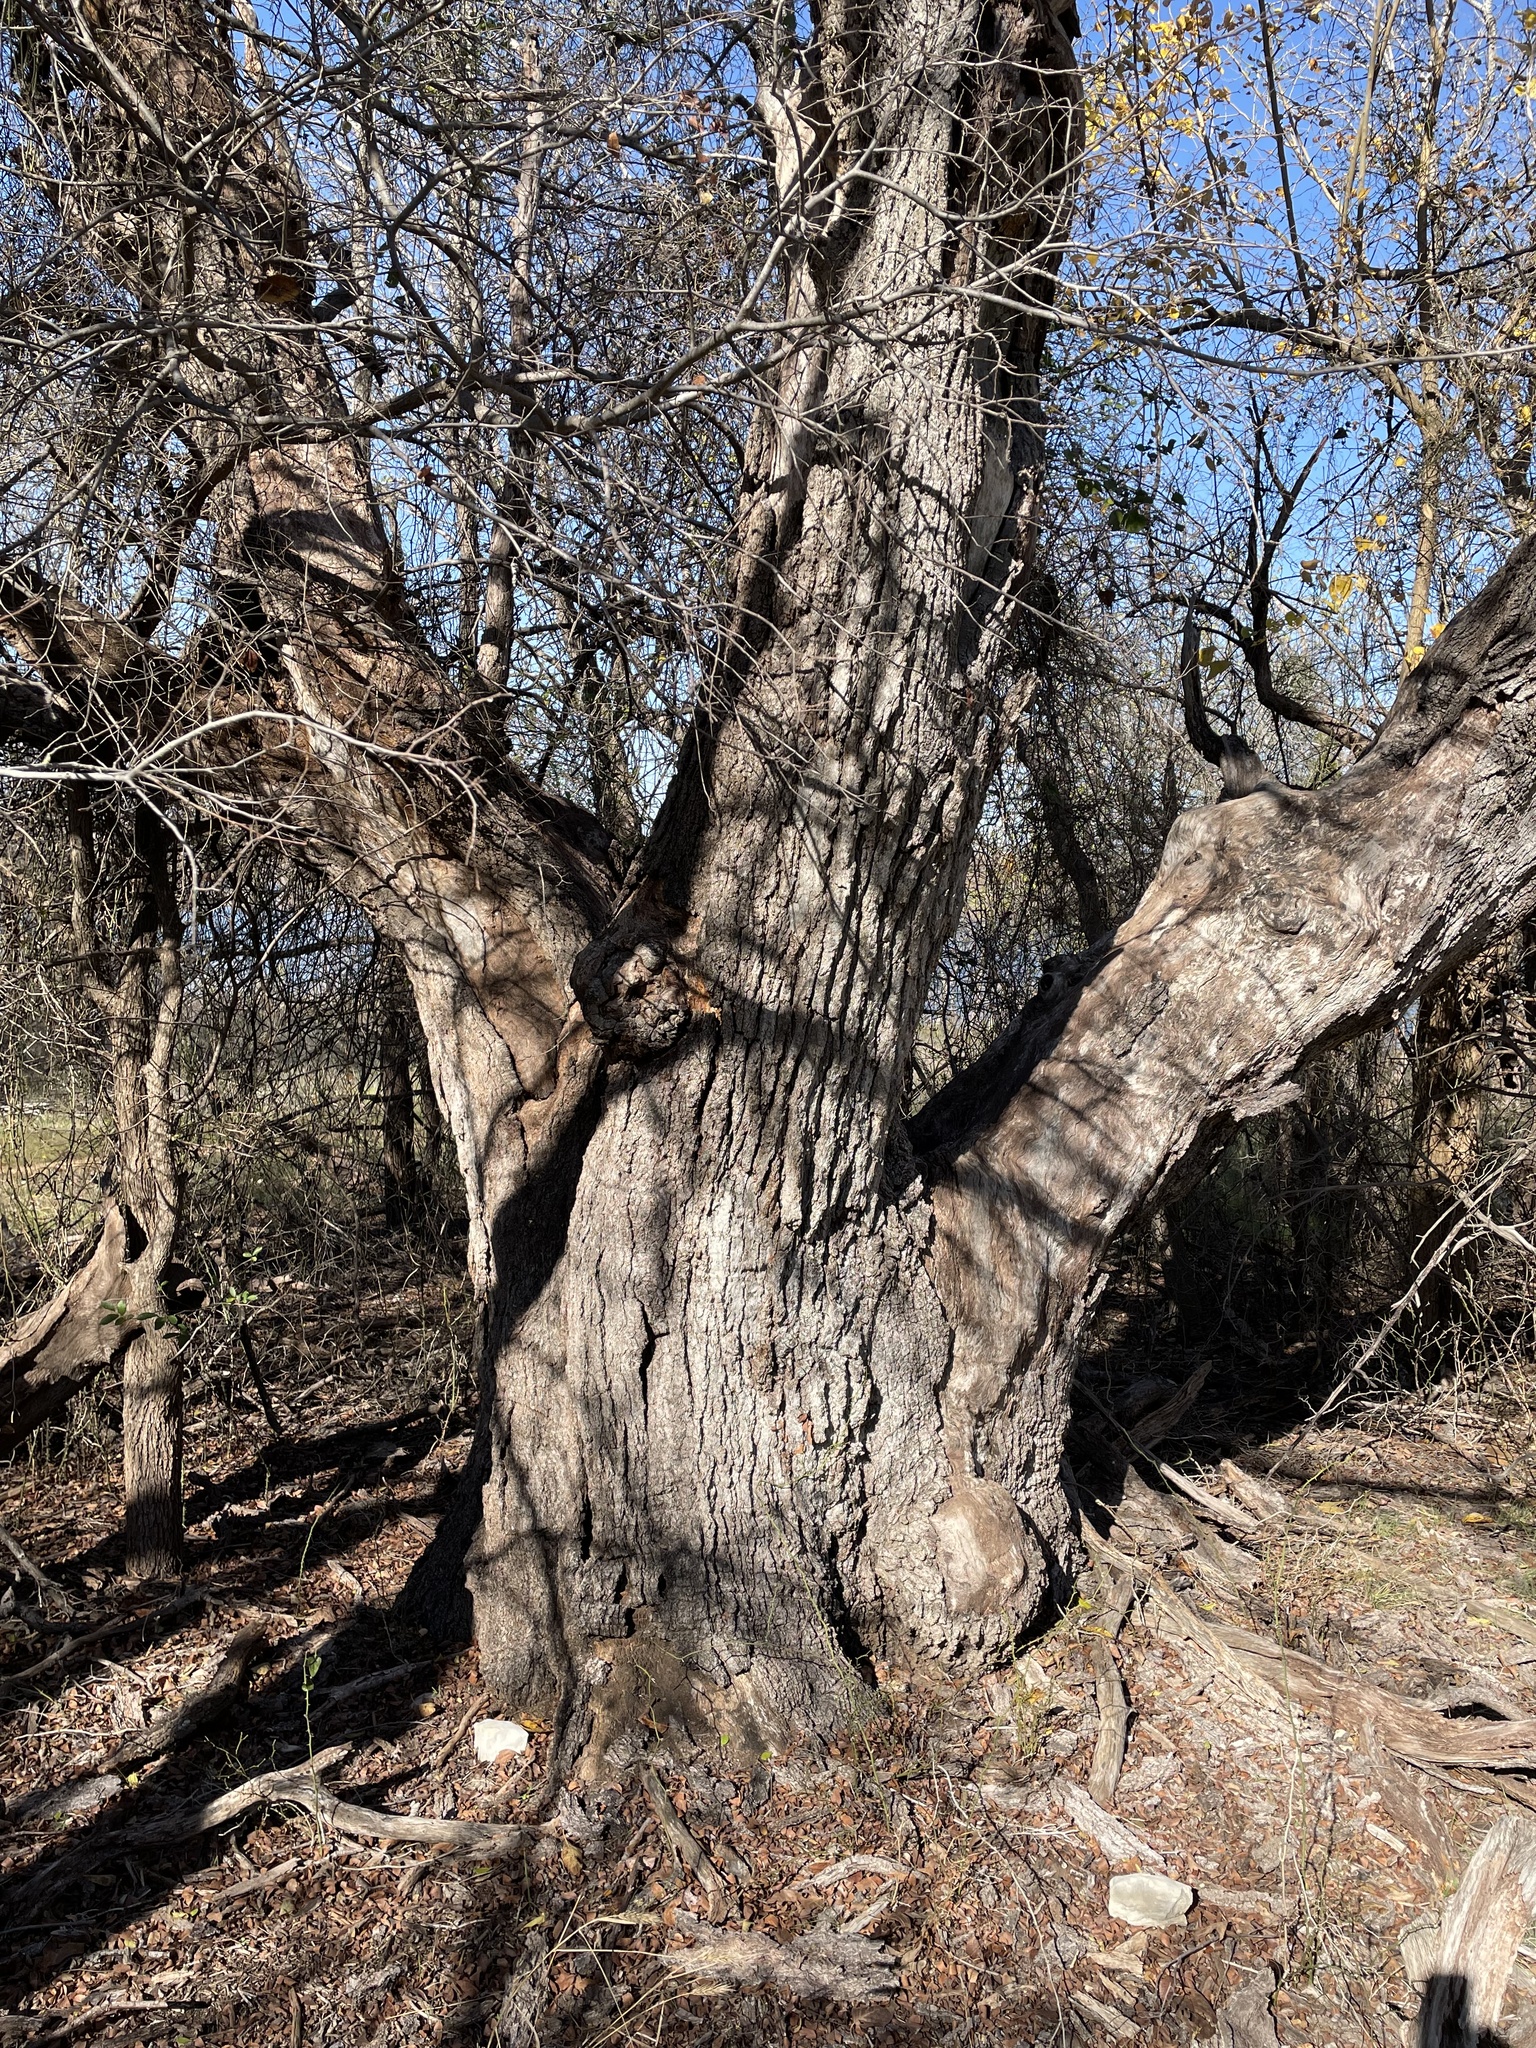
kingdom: Plantae
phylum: Tracheophyta
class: Magnoliopsida
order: Fagales
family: Fagaceae
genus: Quercus
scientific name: Quercus fusiformis
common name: Texas live oak
